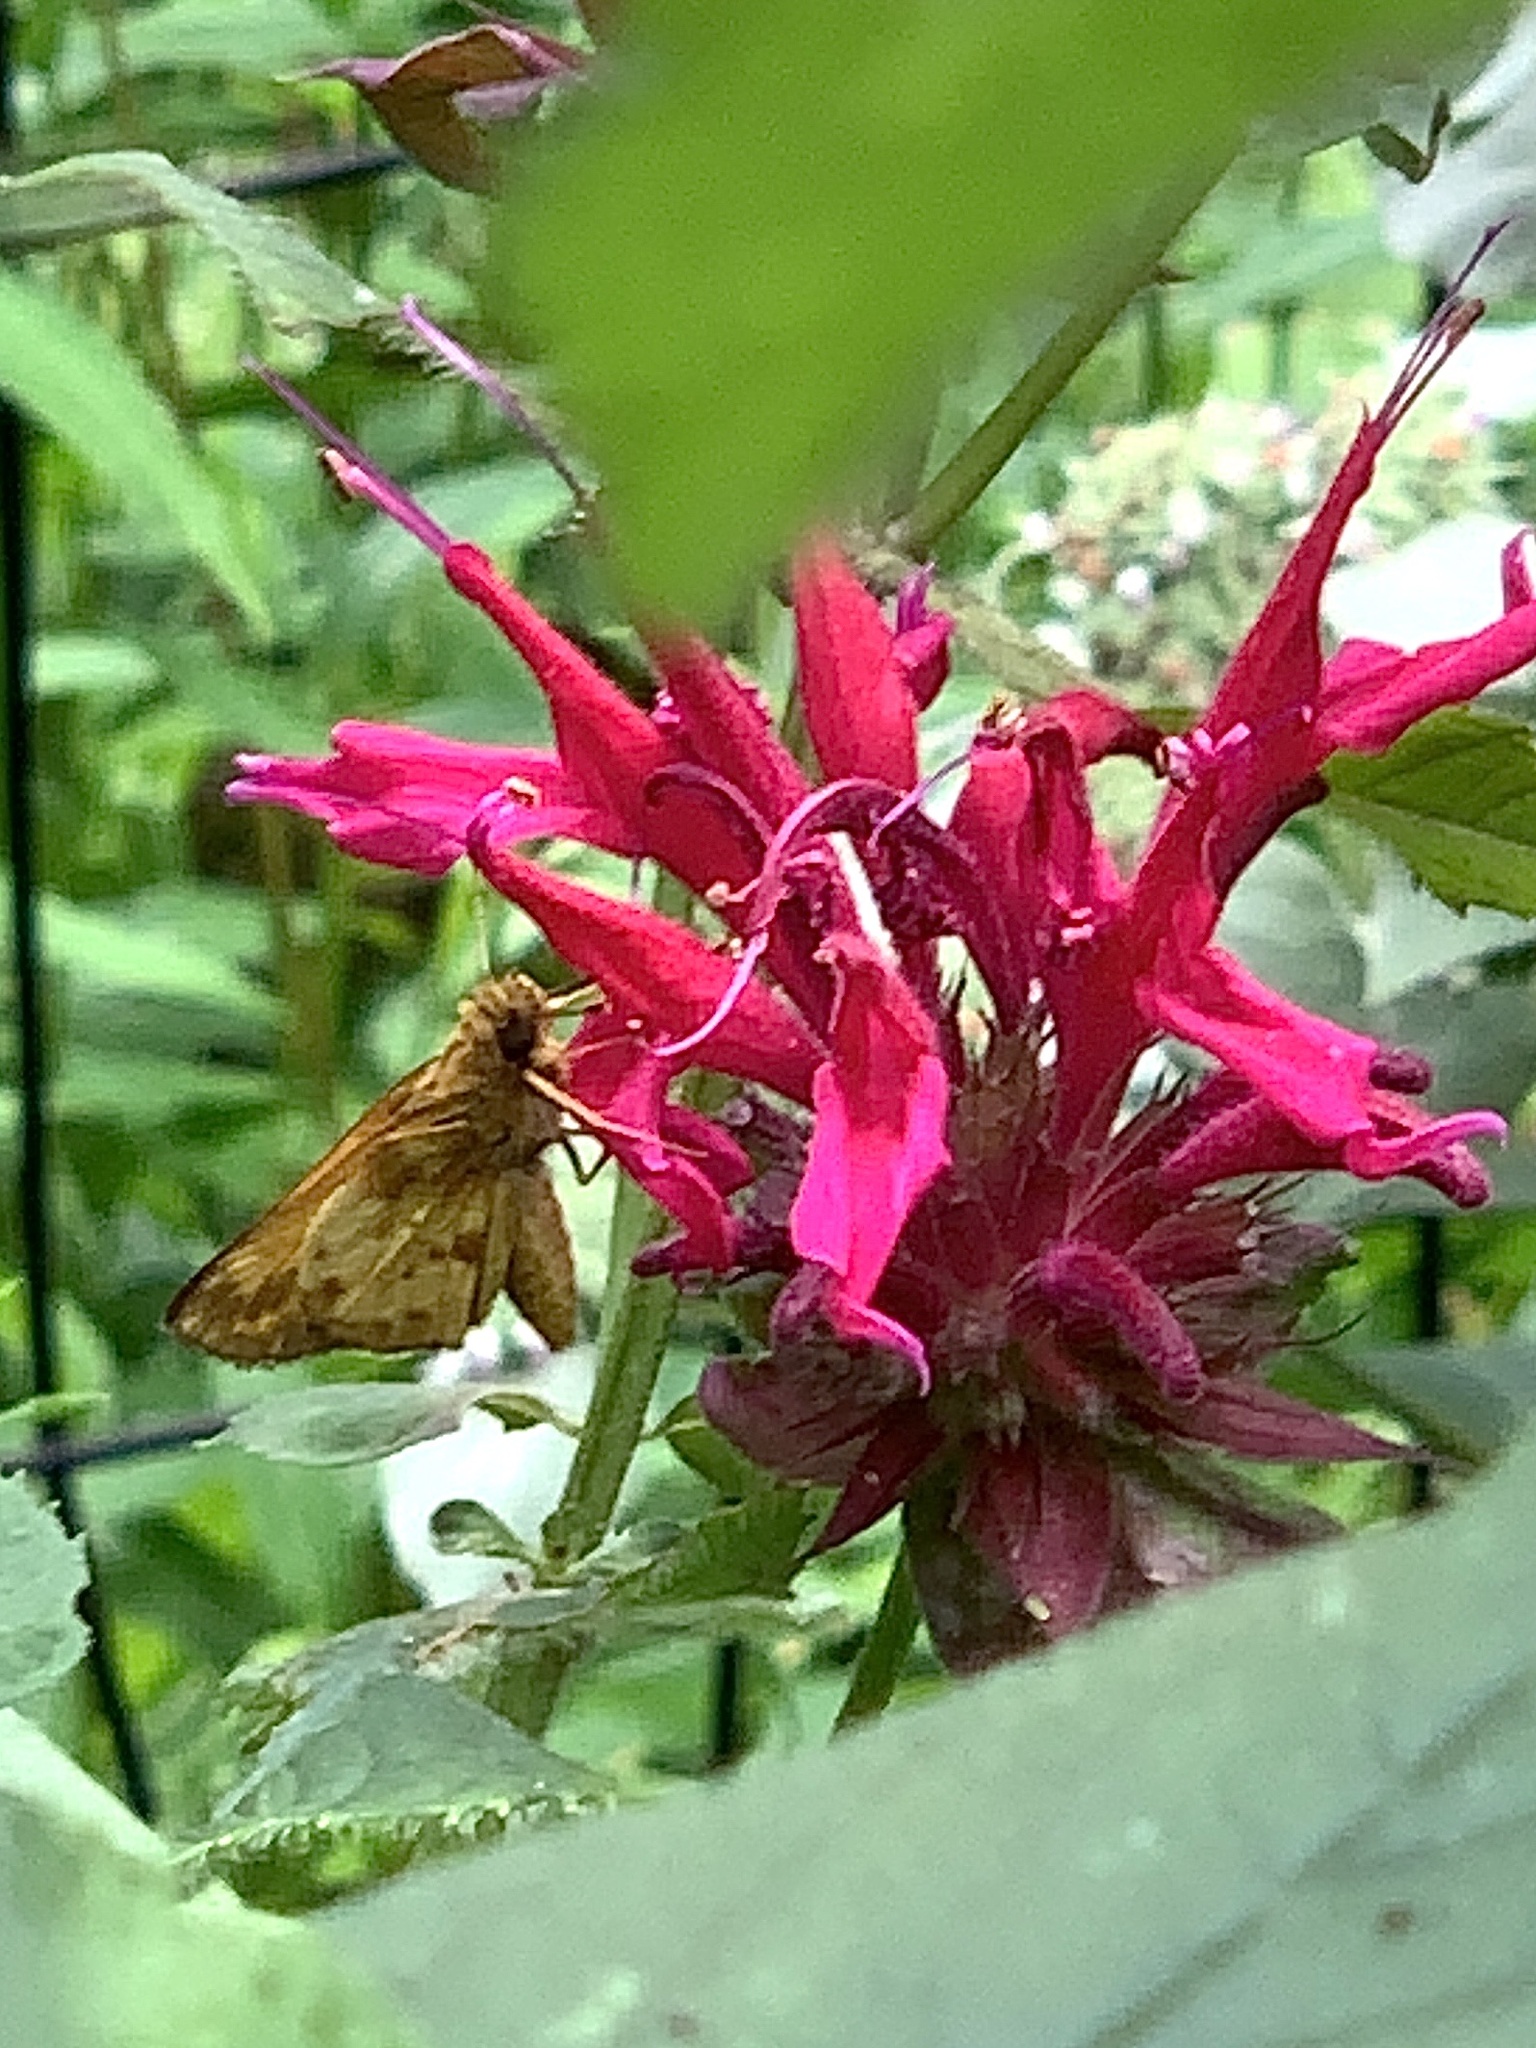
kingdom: Animalia
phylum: Arthropoda
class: Insecta
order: Lepidoptera
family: Hesperiidae
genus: Lon
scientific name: Lon zabulon
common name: Zabulon skipper
